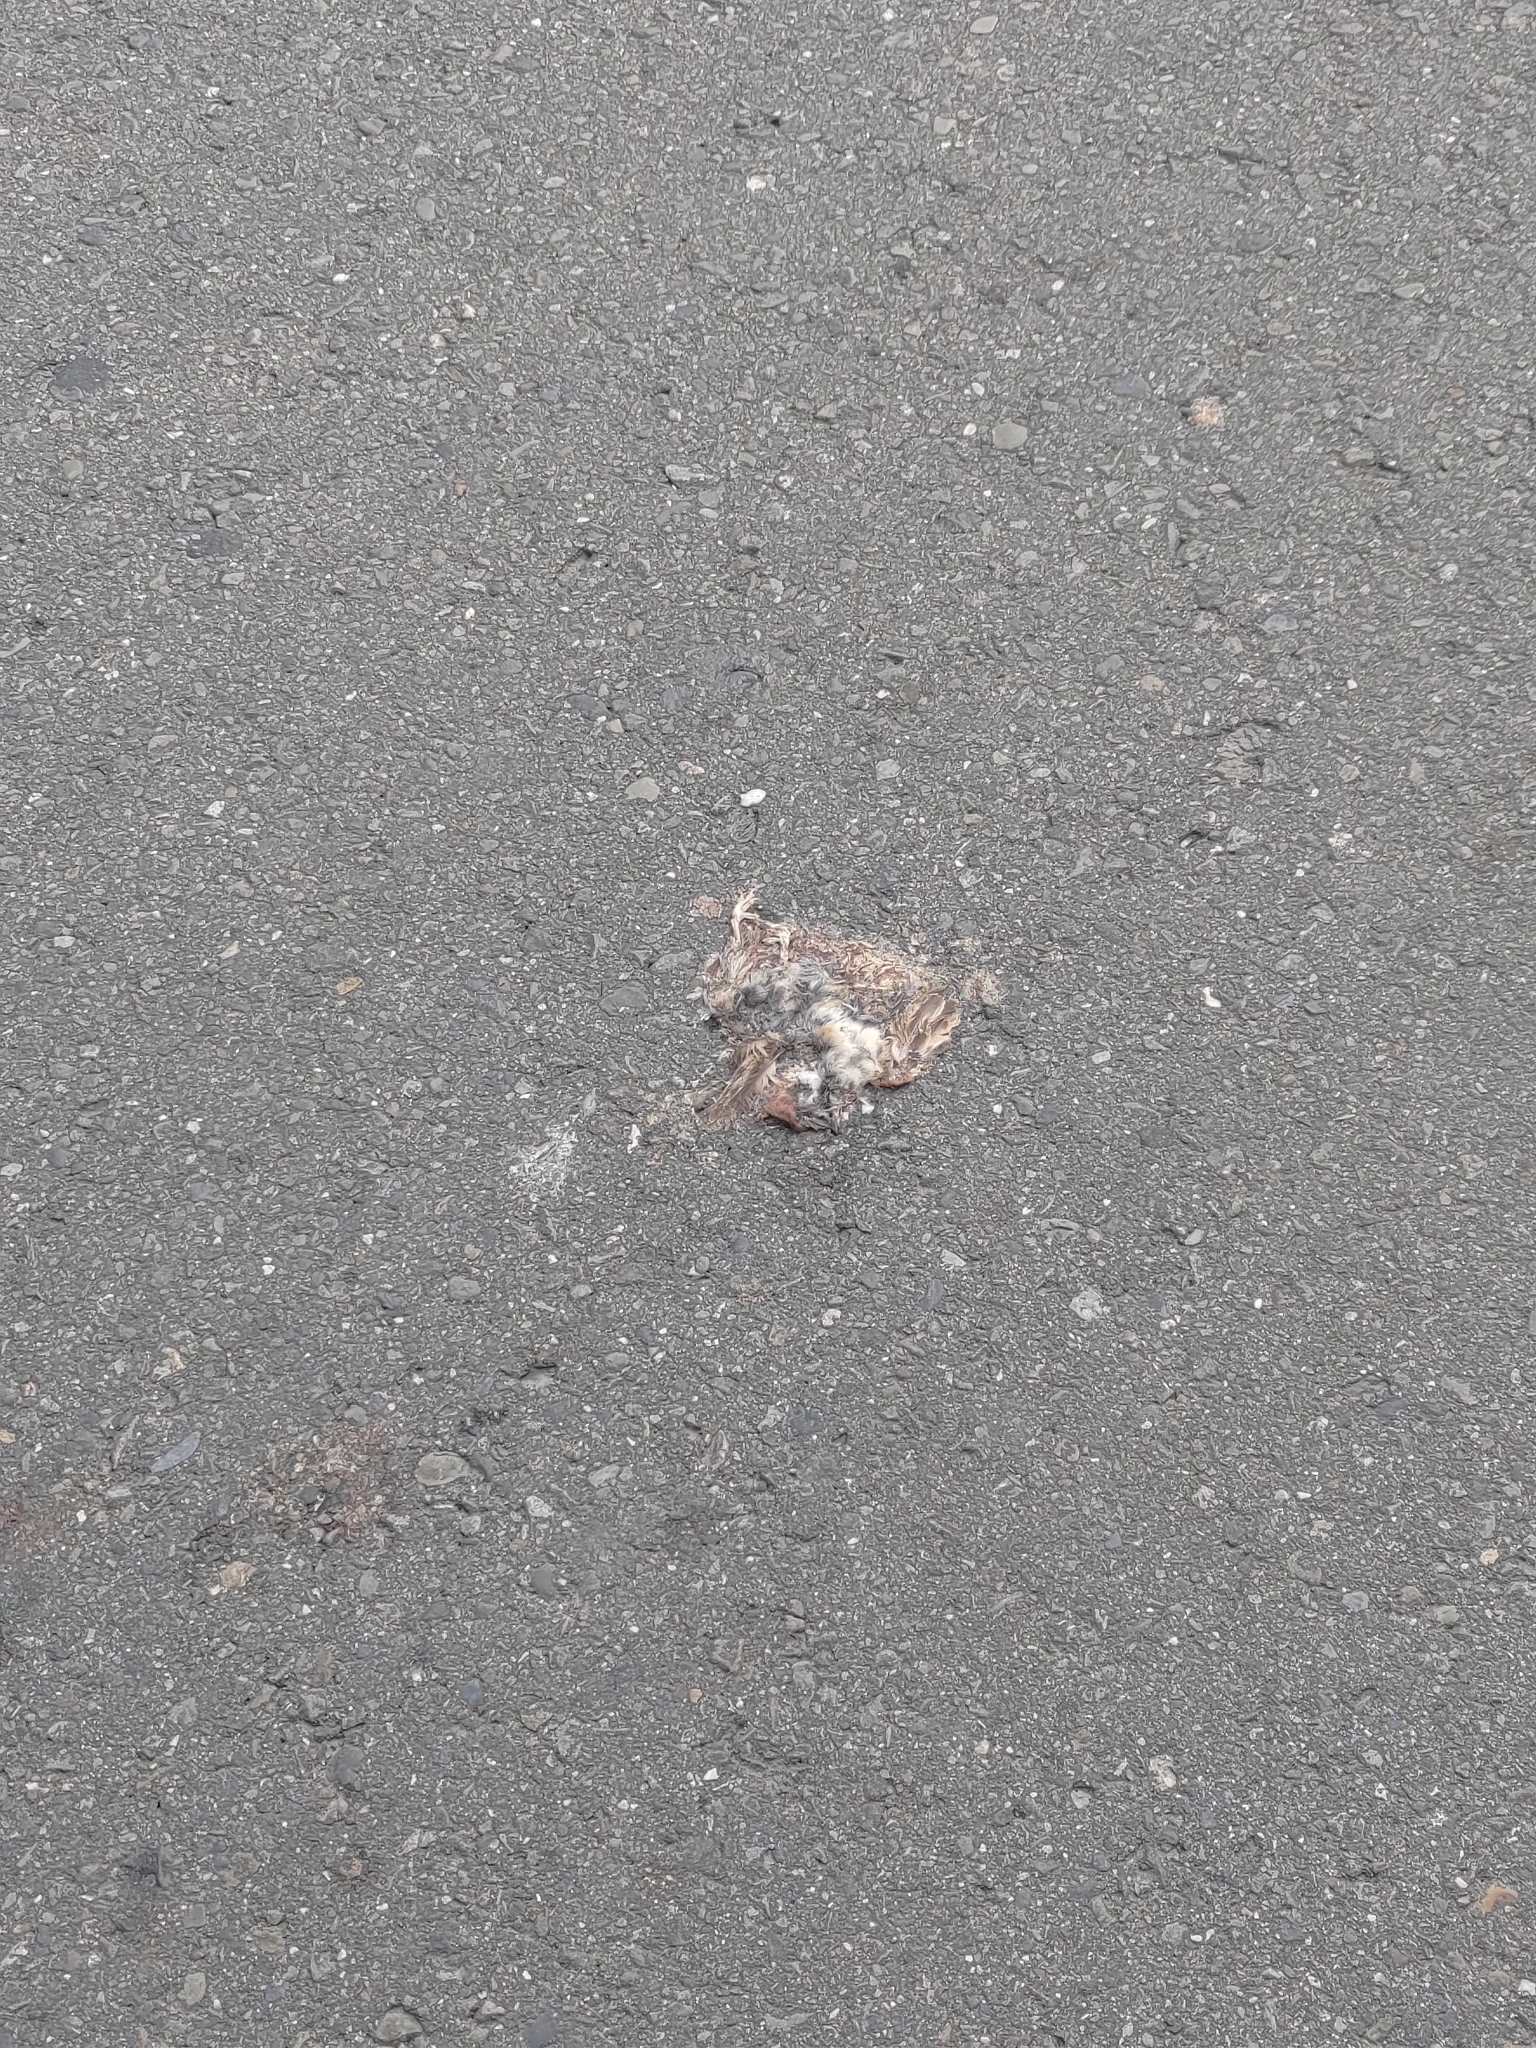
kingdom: Animalia
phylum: Chordata
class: Aves
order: Passeriformes
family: Passeridae
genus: Passer
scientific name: Passer montanus
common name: Eurasian tree sparrow
